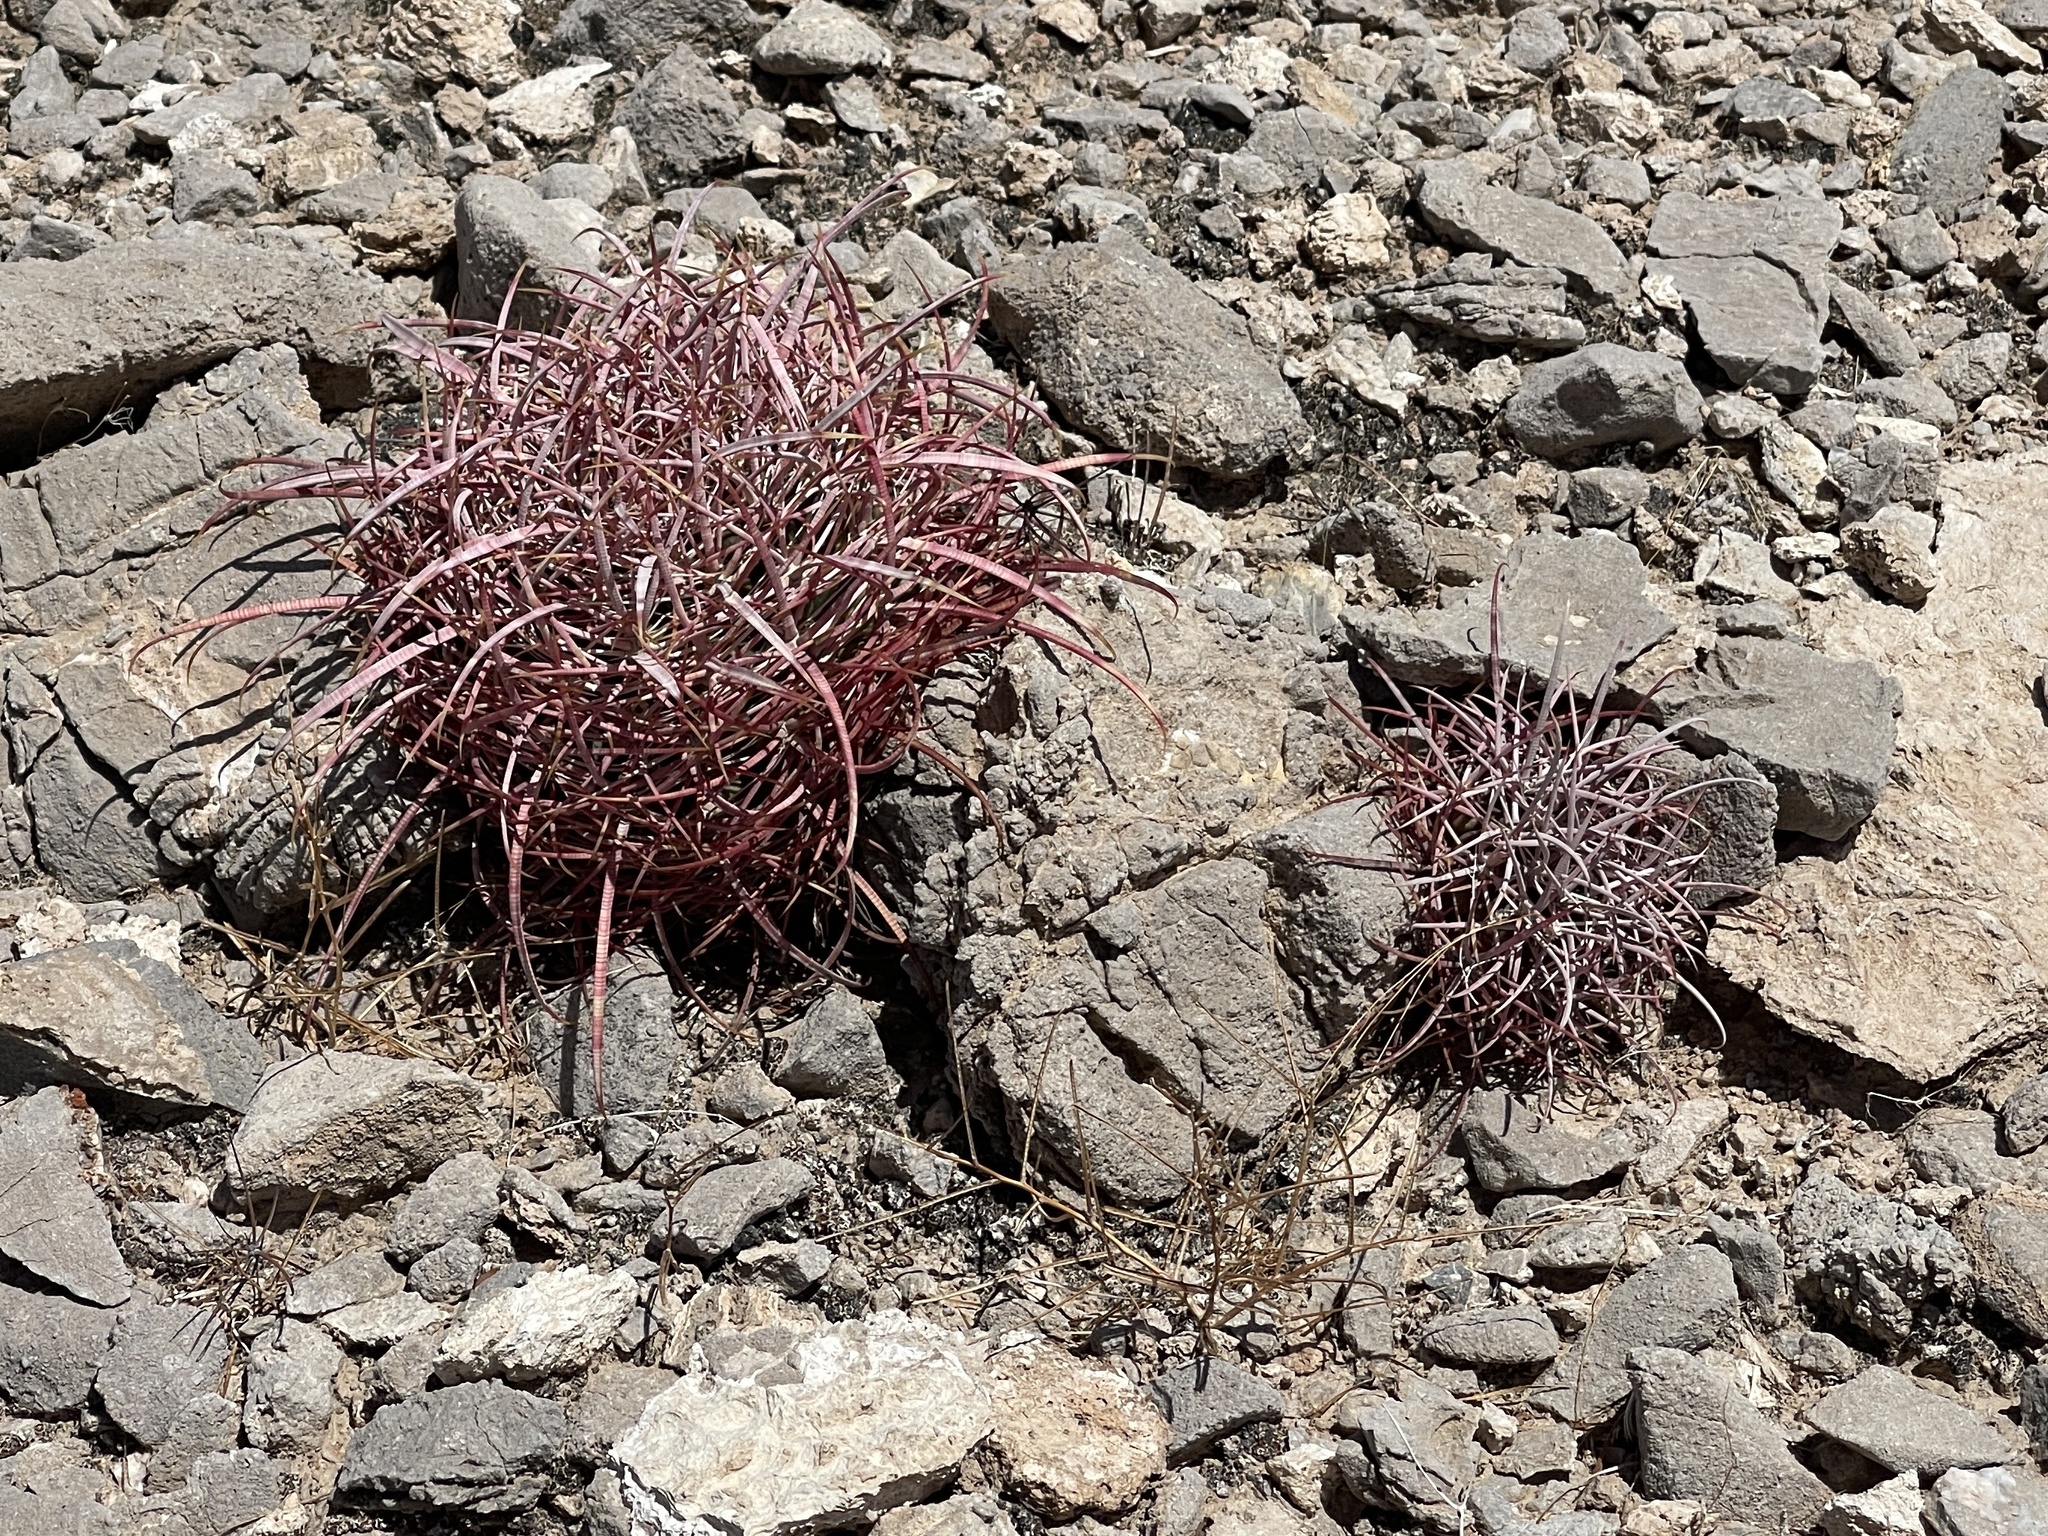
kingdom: Plantae
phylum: Tracheophyta
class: Magnoliopsida
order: Caryophyllales
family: Cactaceae
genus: Ferocactus
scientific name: Ferocactus cylindraceus
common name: California barrel cactus
